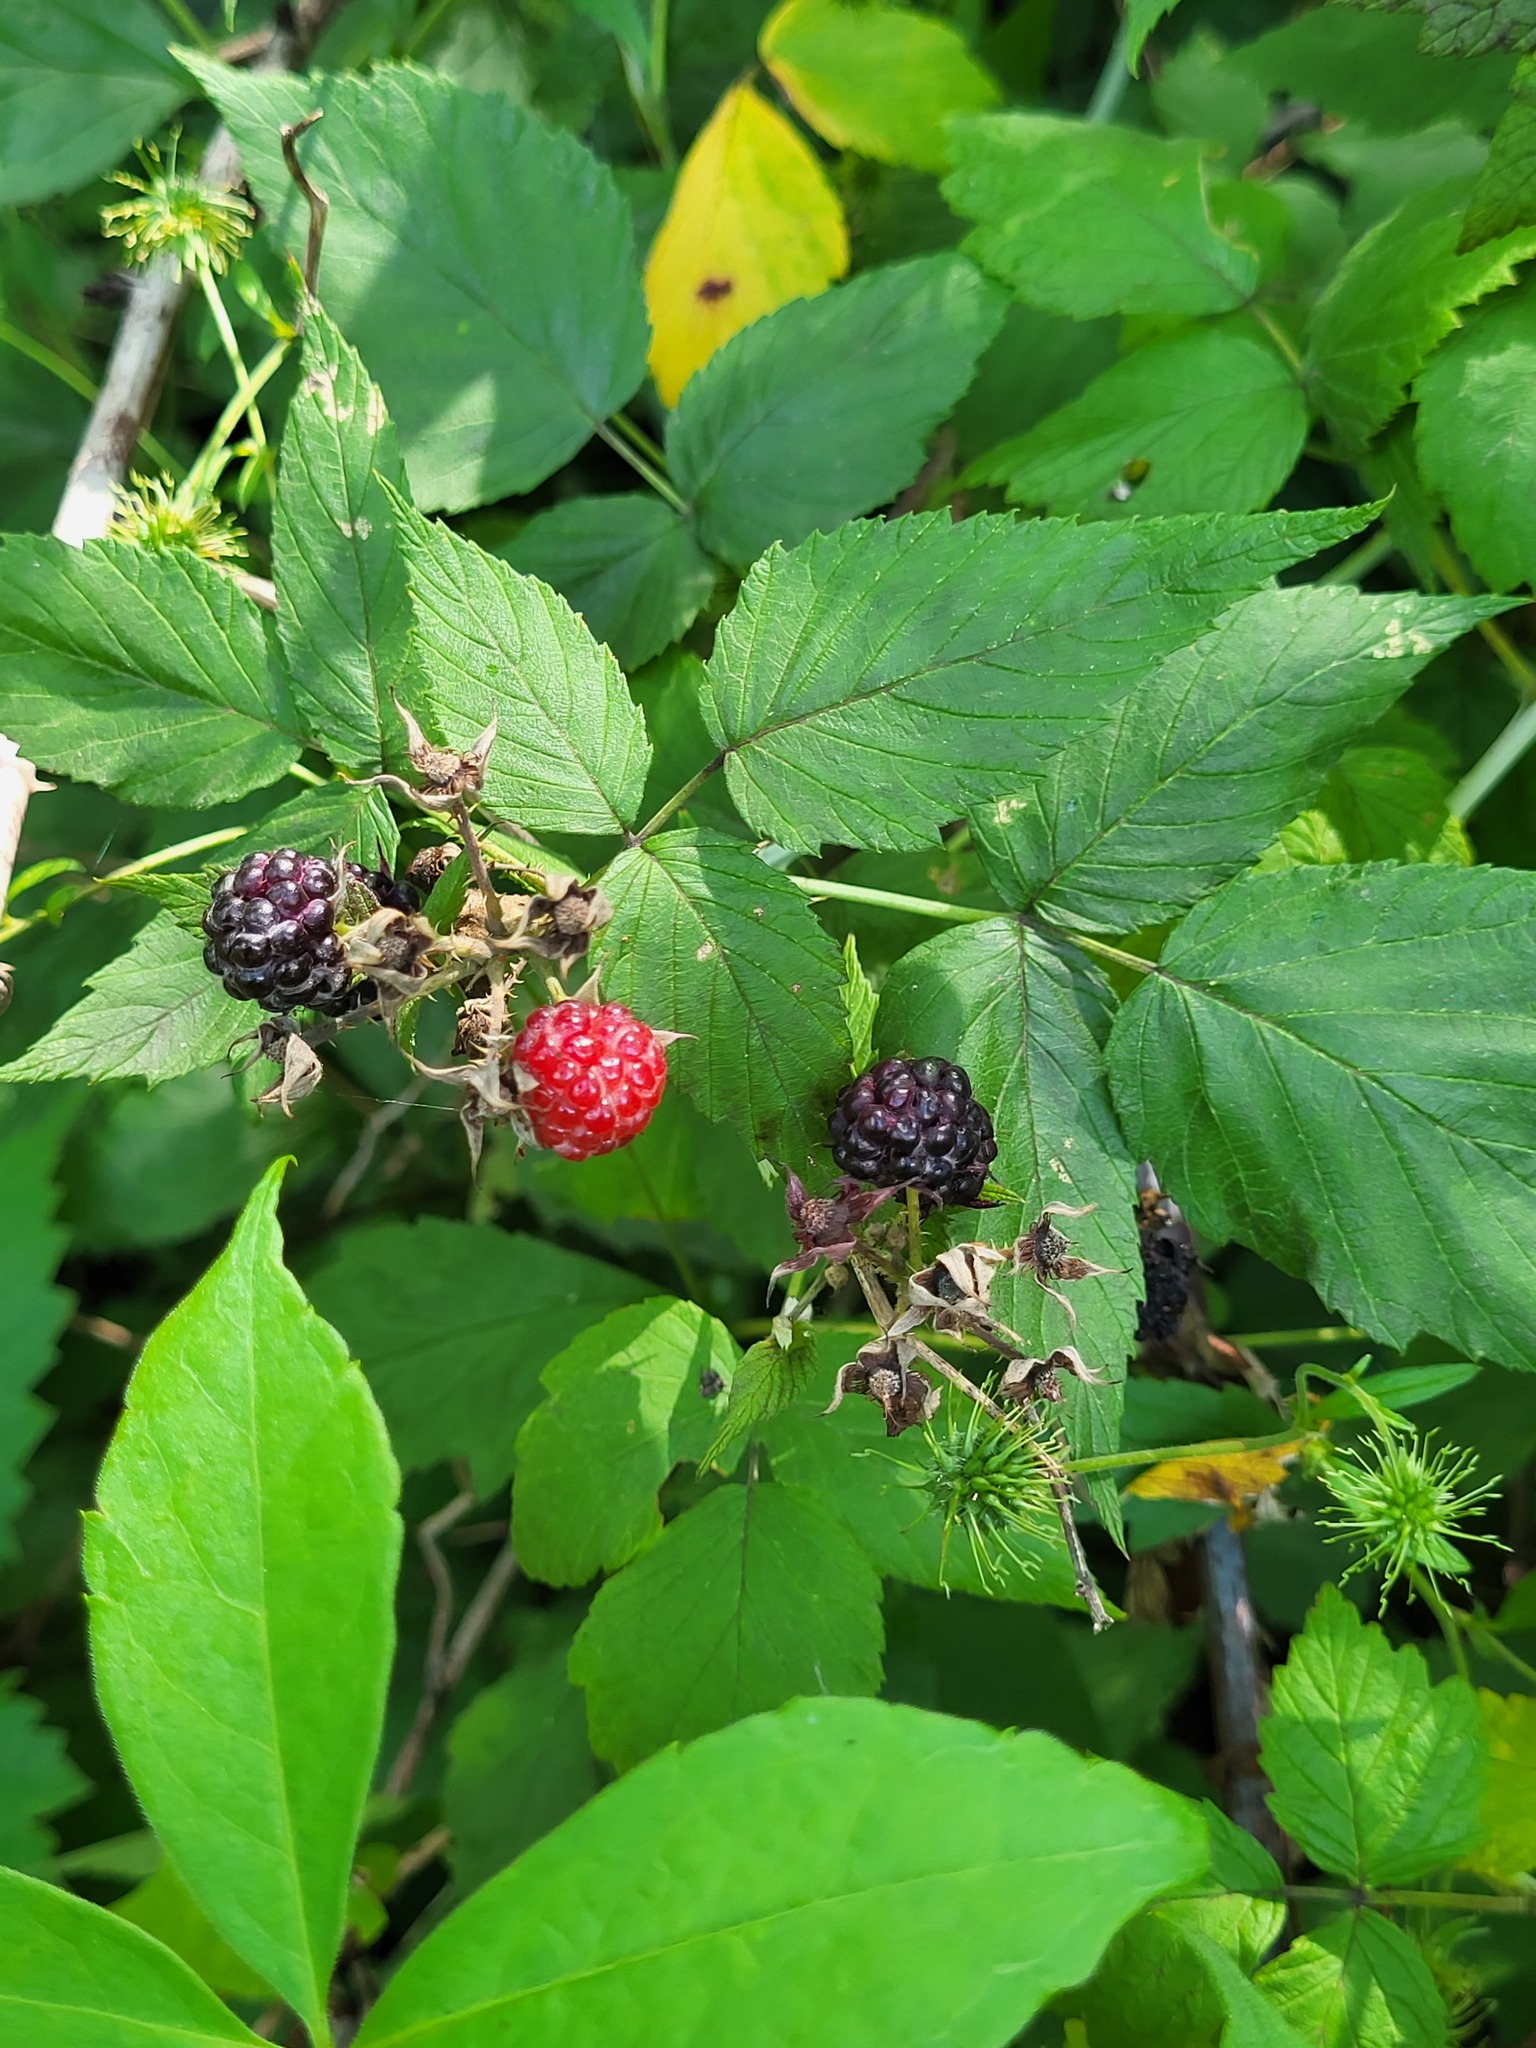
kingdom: Plantae
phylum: Tracheophyta
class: Magnoliopsida
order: Rosales
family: Rosaceae
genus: Rubus
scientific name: Rubus occidentalis
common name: Black raspberry
